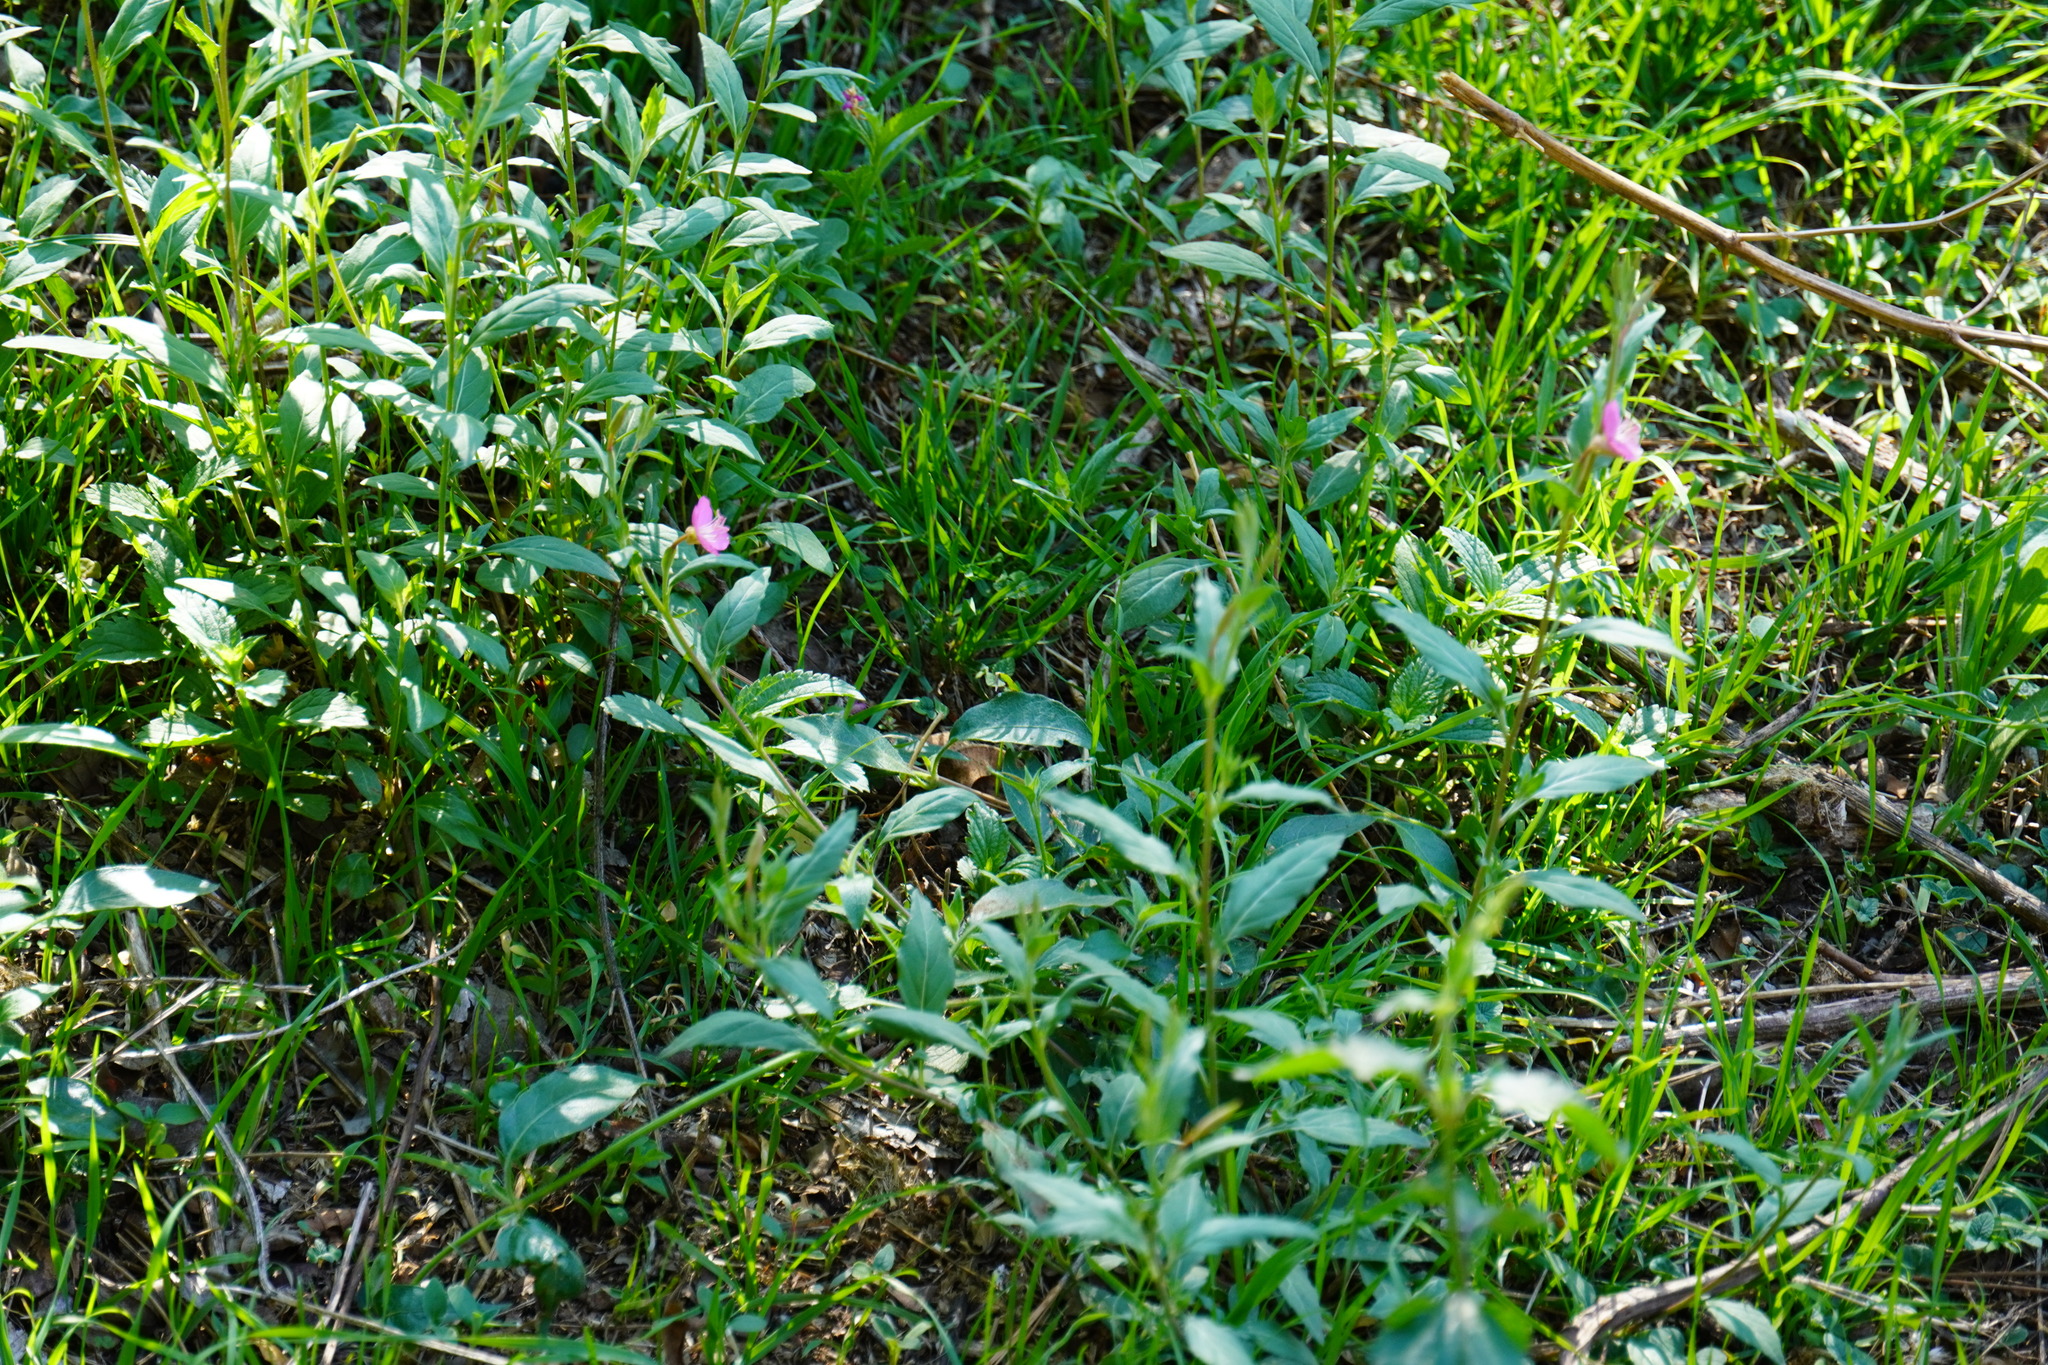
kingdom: Plantae
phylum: Tracheophyta
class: Magnoliopsida
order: Myrtales
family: Onagraceae
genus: Oenothera
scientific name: Oenothera rosea
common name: Rosy evening-primrose
